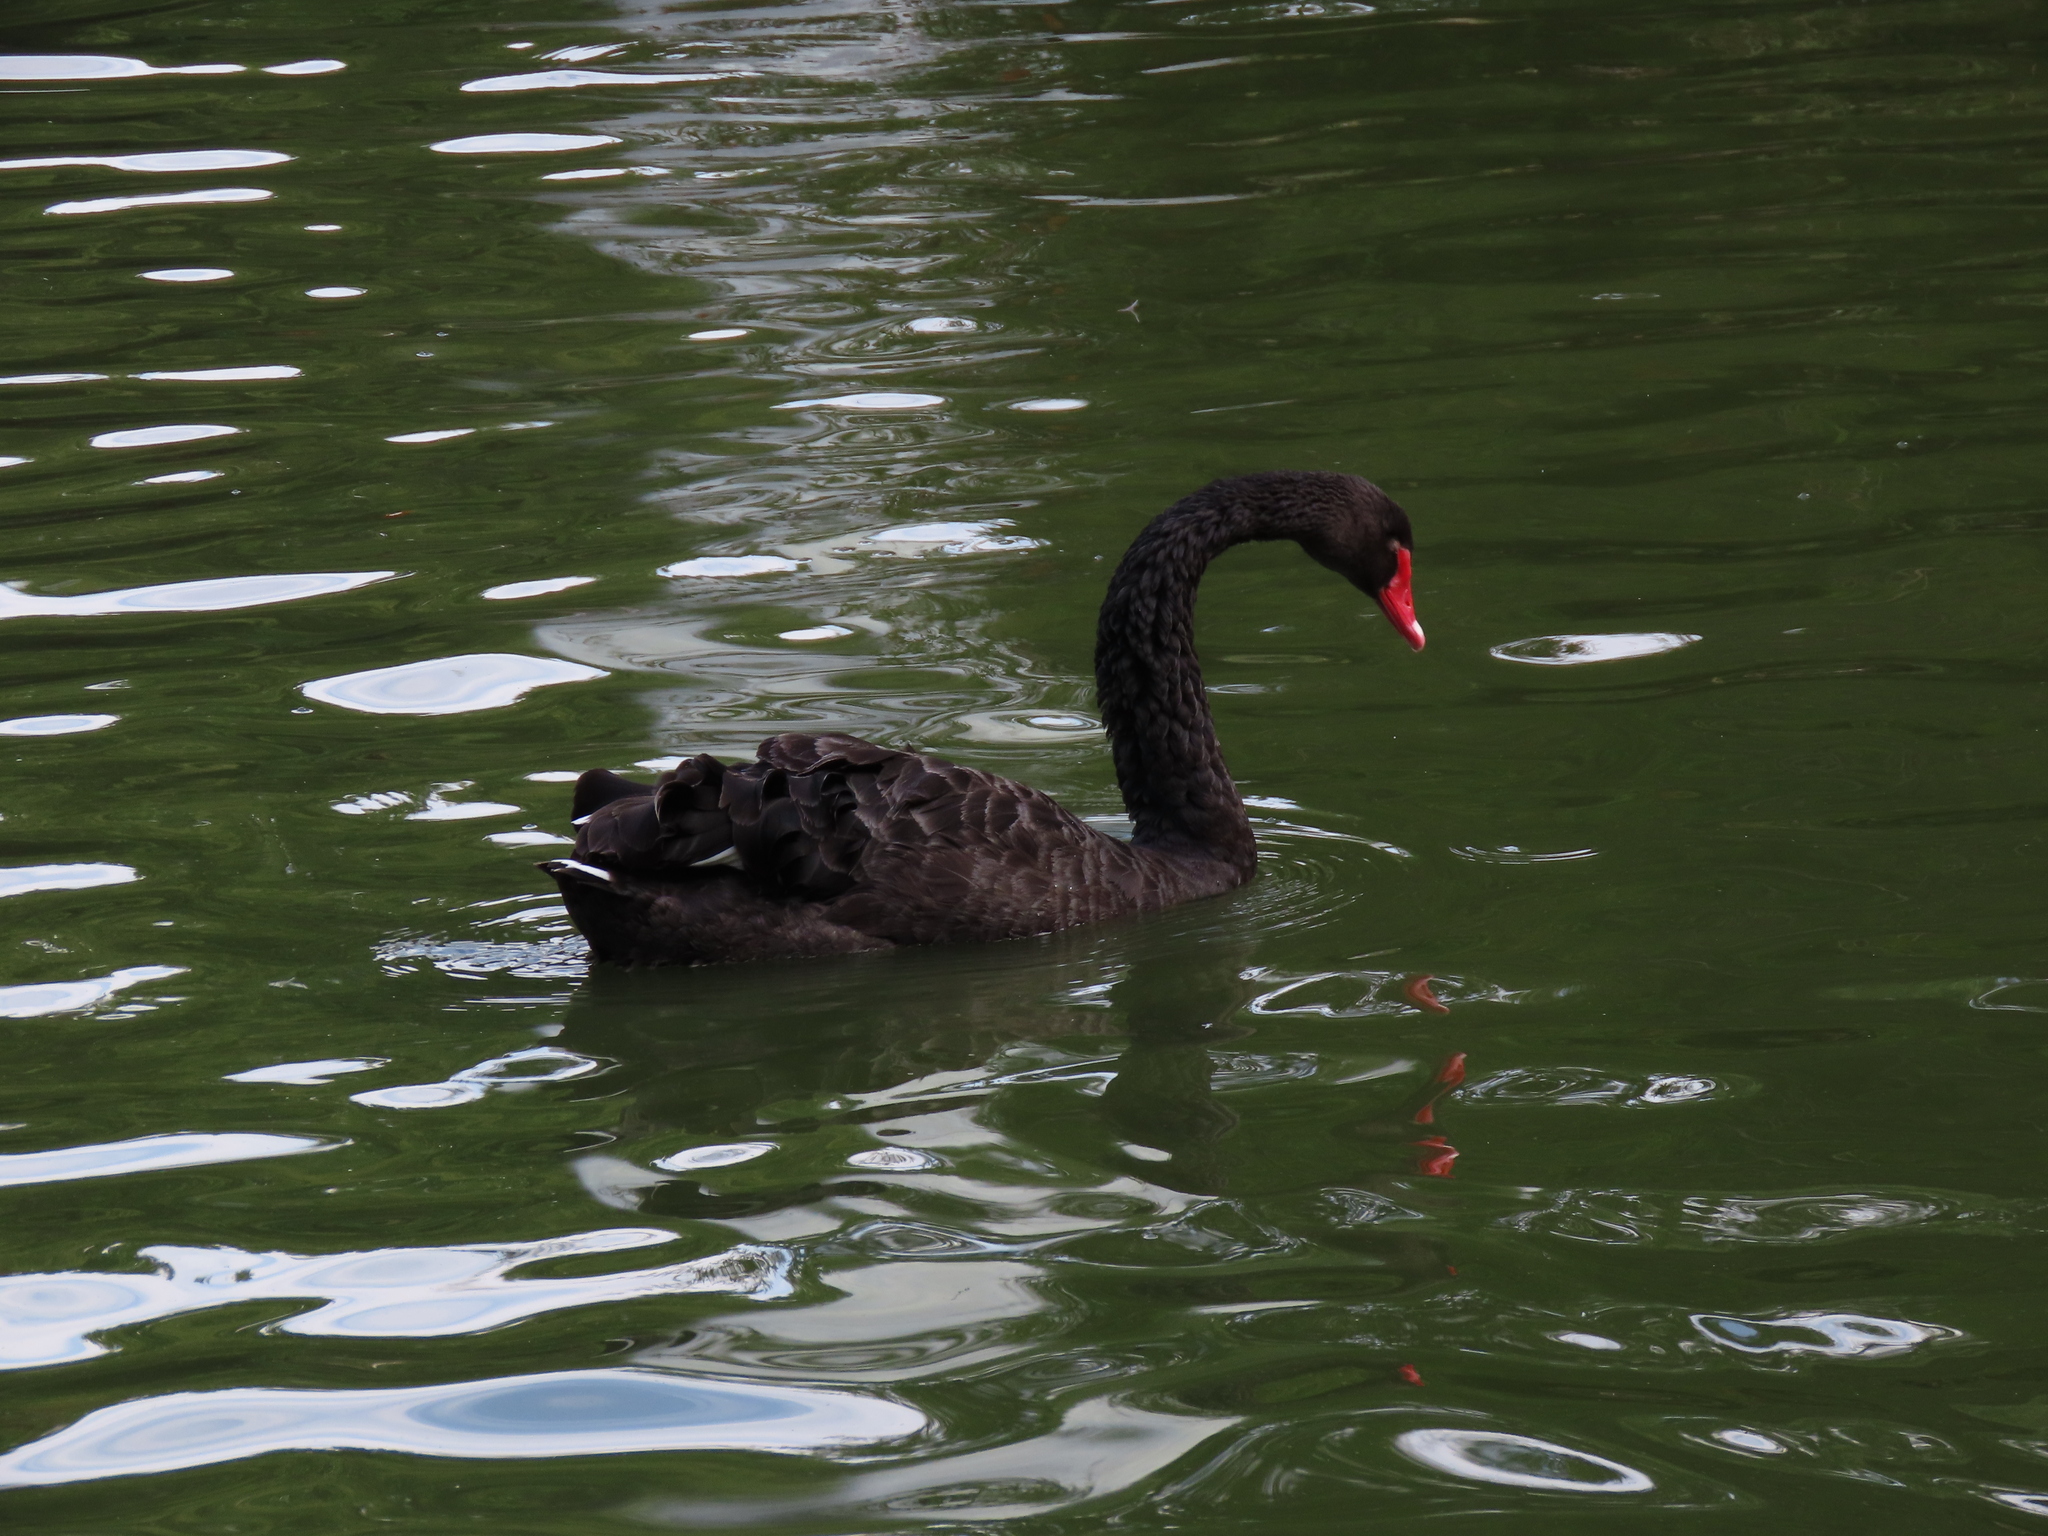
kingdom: Animalia
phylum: Chordata
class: Aves
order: Anseriformes
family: Anatidae
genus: Cygnus
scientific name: Cygnus atratus
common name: Black swan
